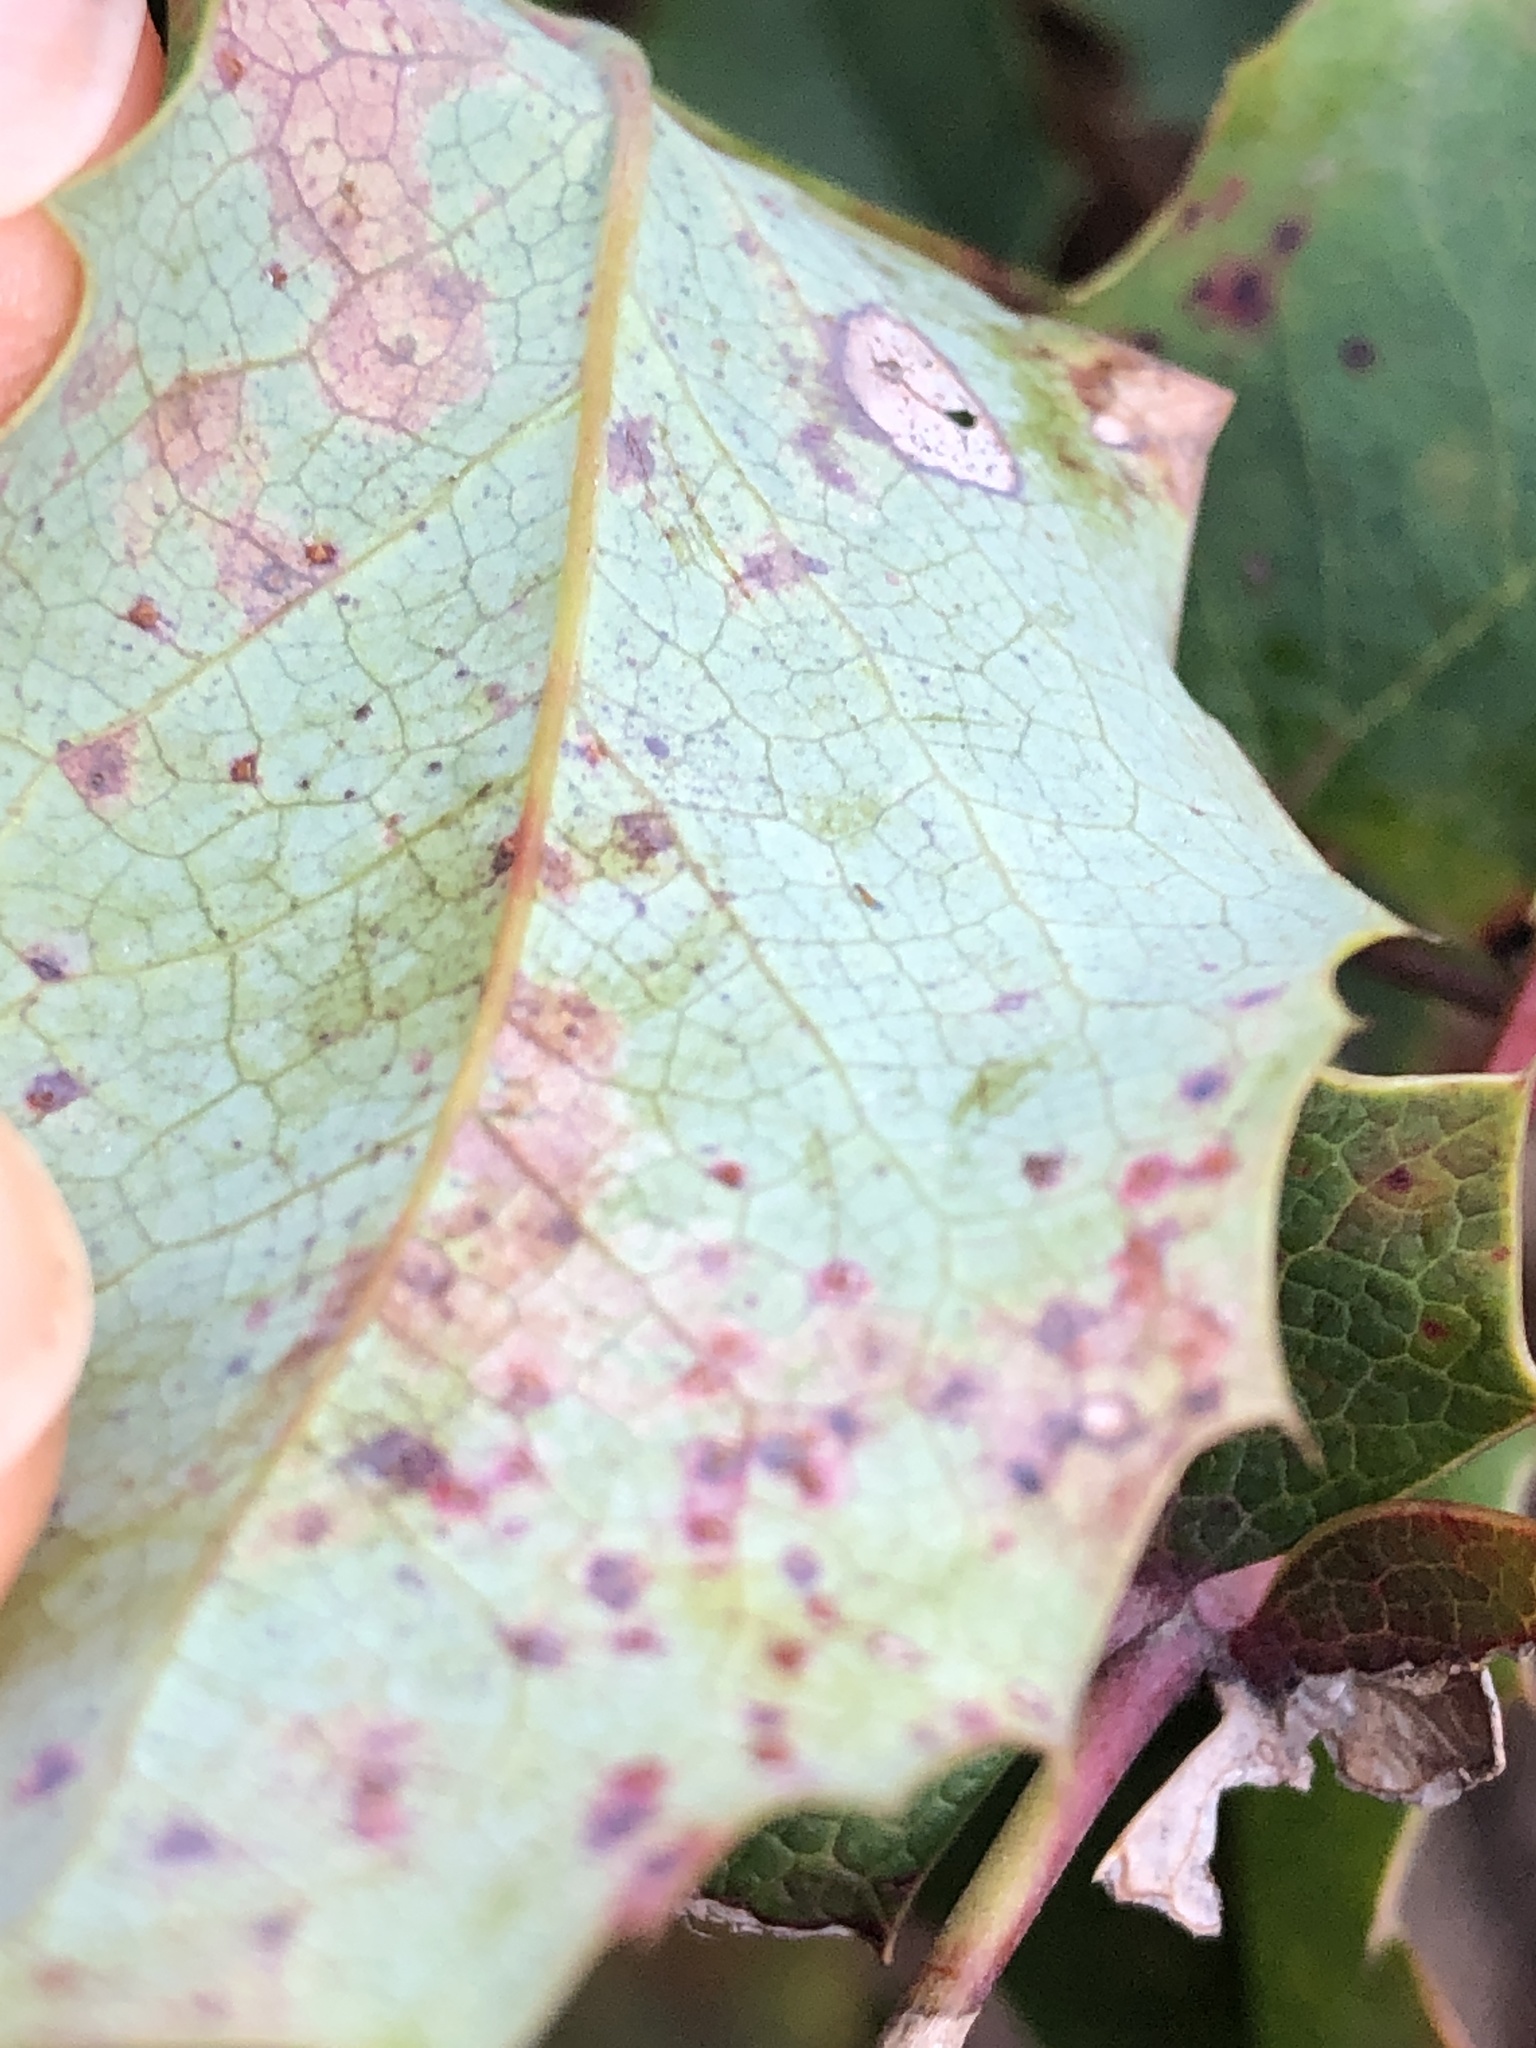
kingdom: Fungi
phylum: Basidiomycota
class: Pucciniomycetes
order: Pucciniales
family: Pucciniaceae
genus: Cumminsiella
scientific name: Cumminsiella mirabilissima
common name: Mahonia rust
